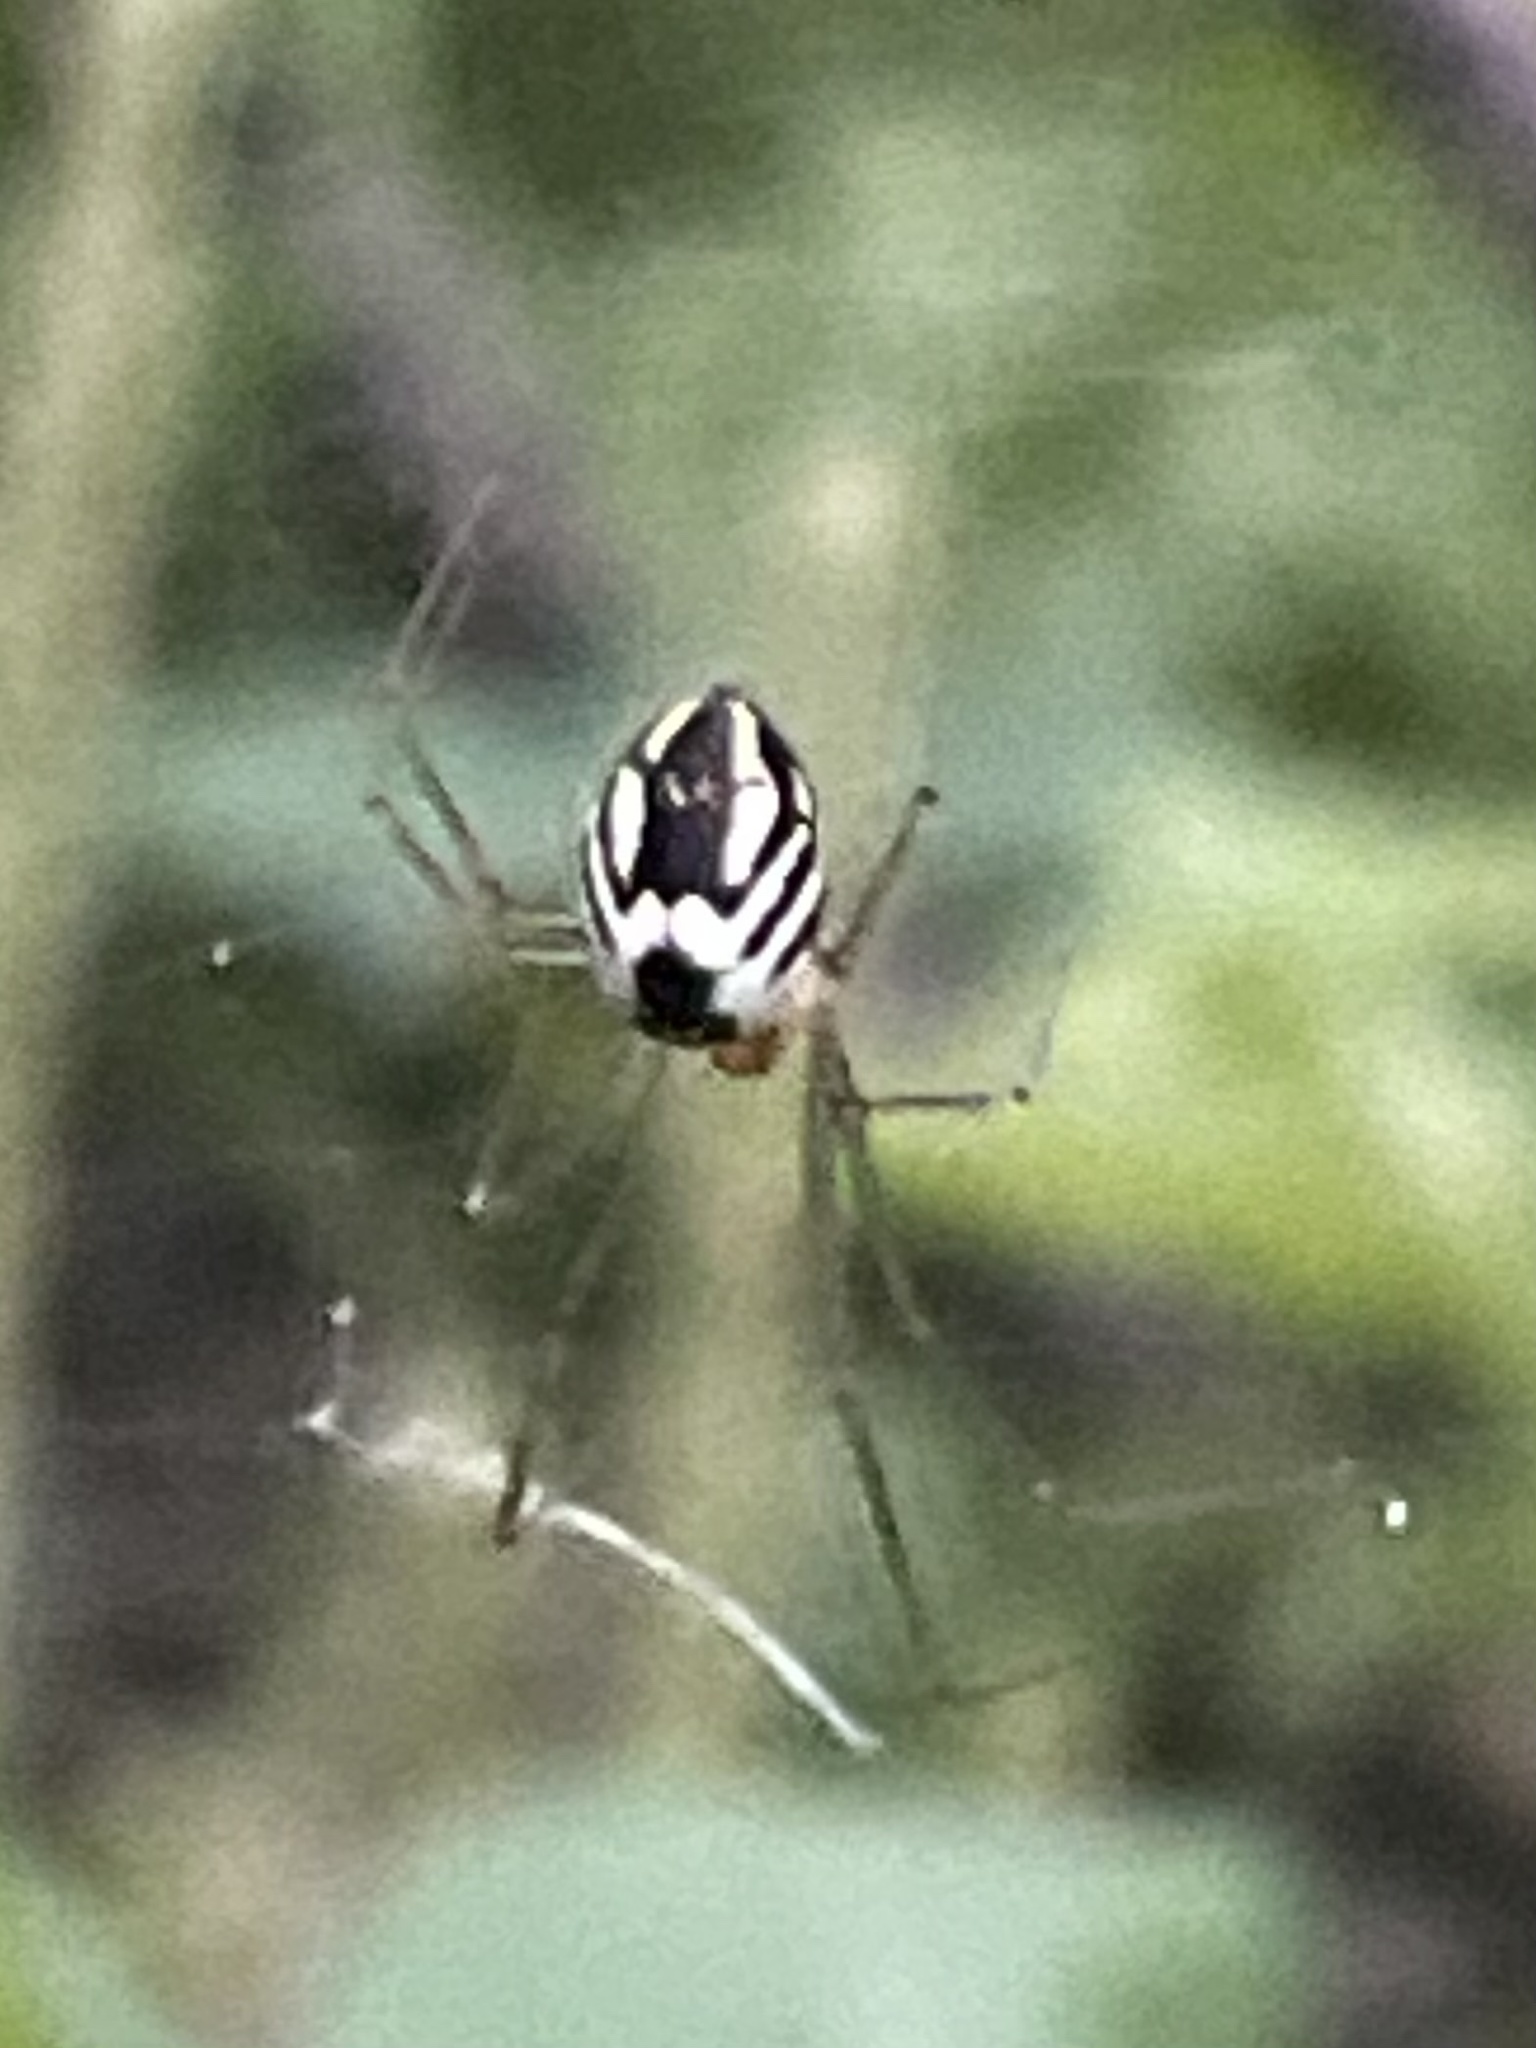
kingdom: Animalia
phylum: Arthropoda
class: Arachnida
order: Araneae
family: Linyphiidae
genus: Neriene
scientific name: Neriene radiata
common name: Filmy dome spider
